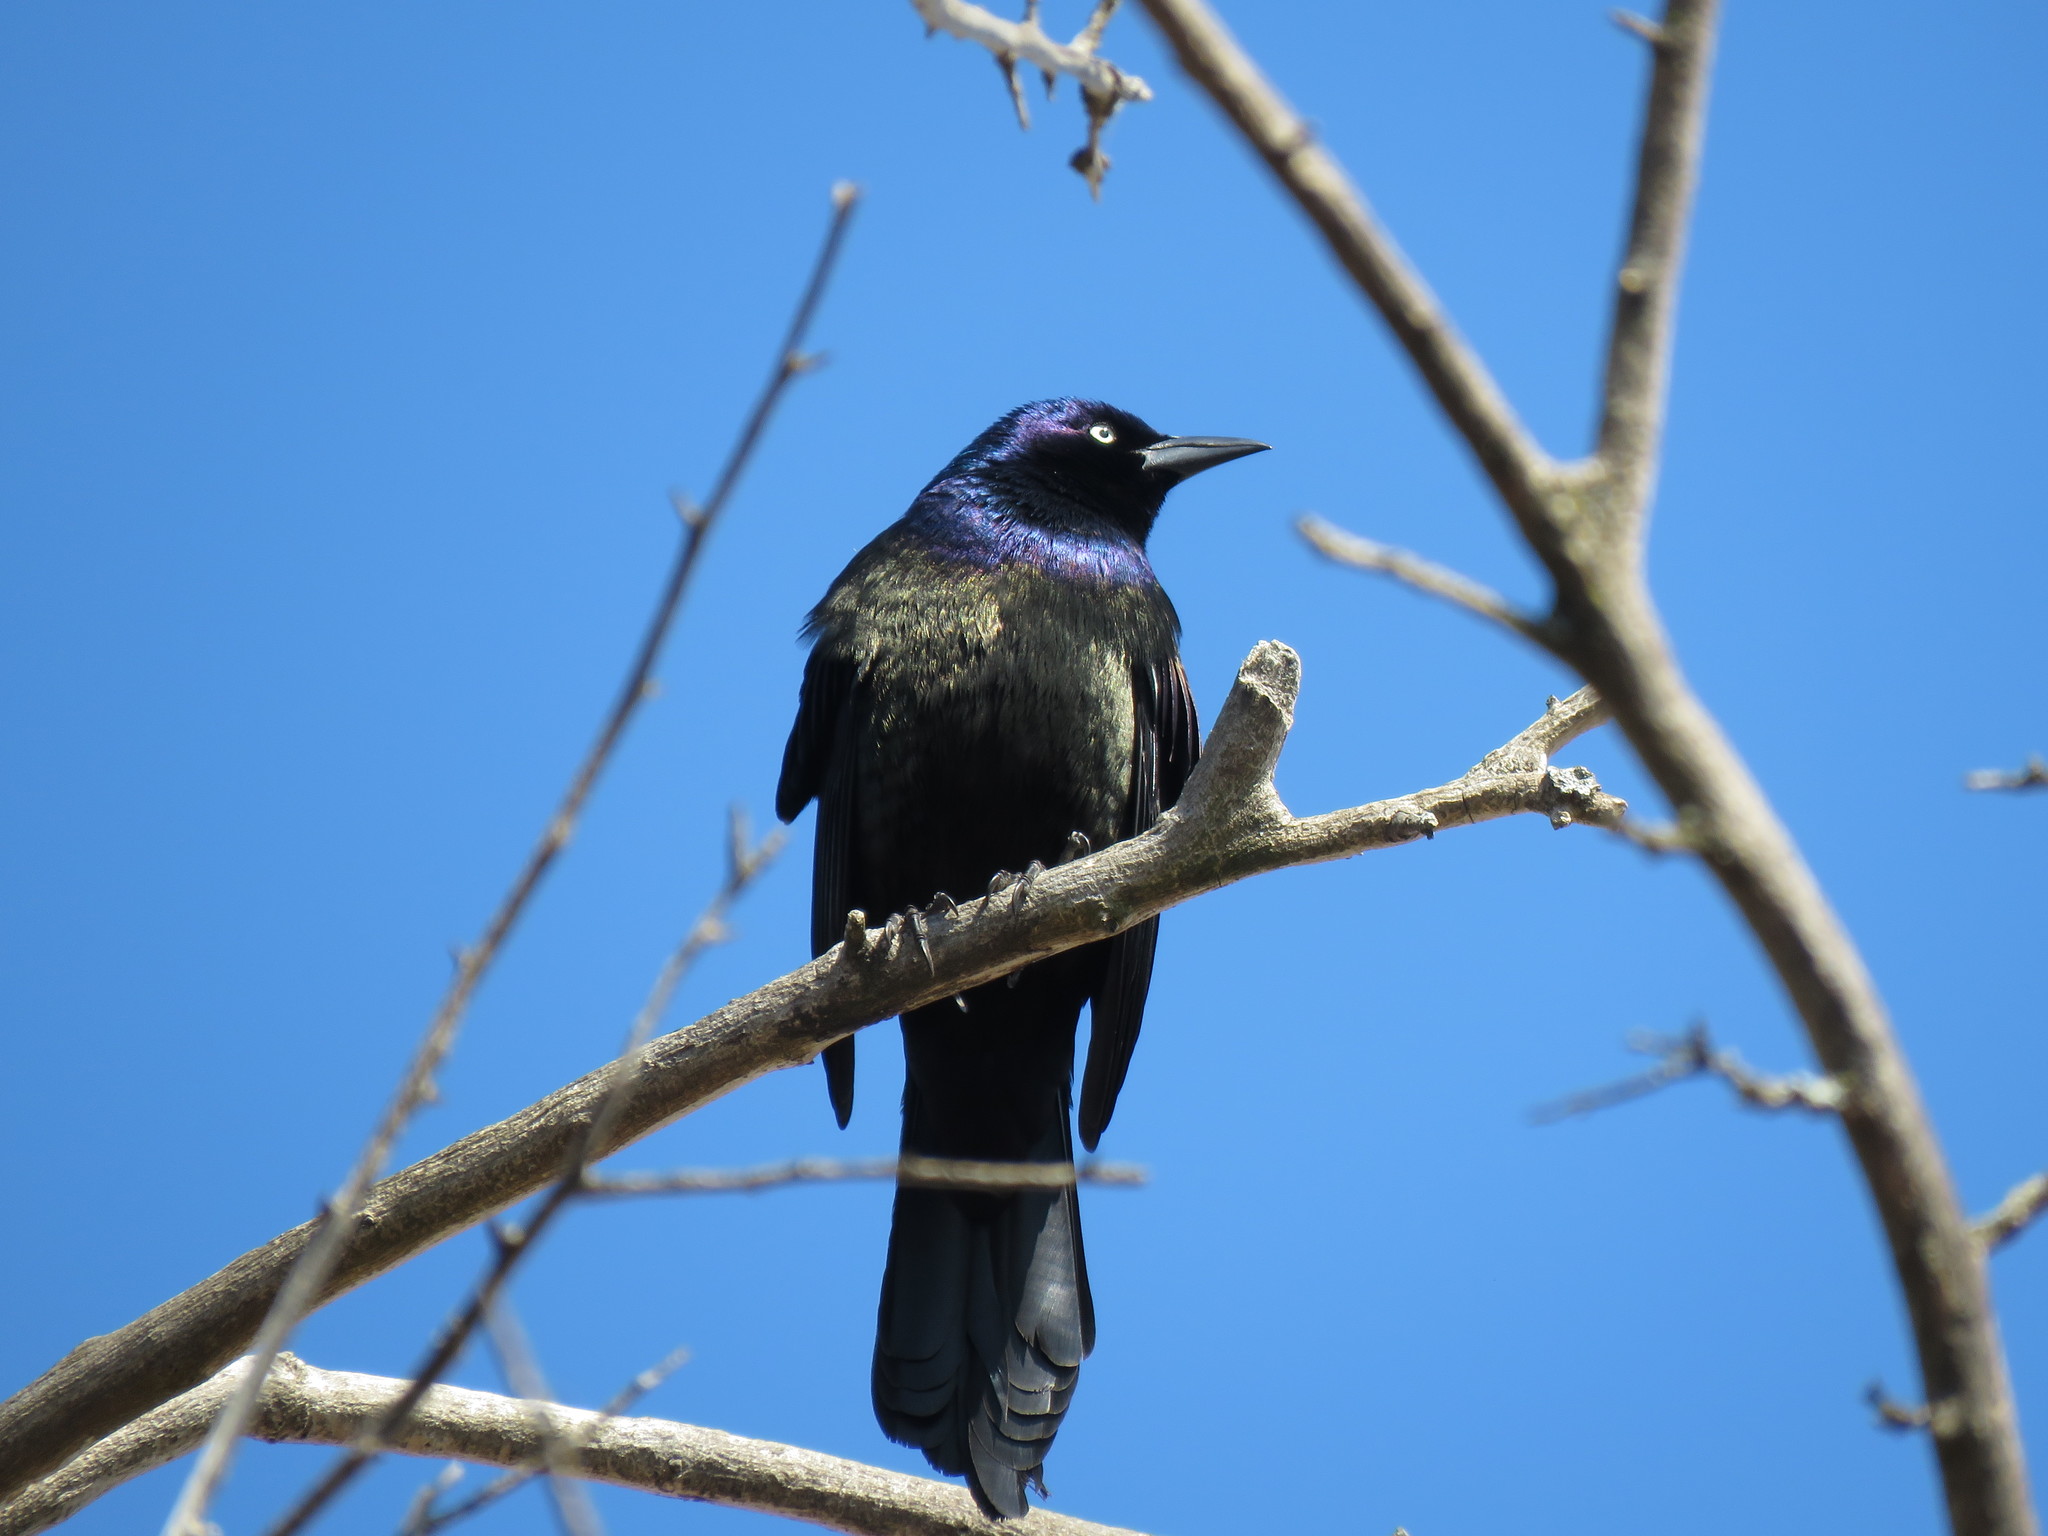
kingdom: Animalia
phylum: Chordata
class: Aves
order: Passeriformes
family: Icteridae
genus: Quiscalus
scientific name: Quiscalus quiscula
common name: Common grackle
